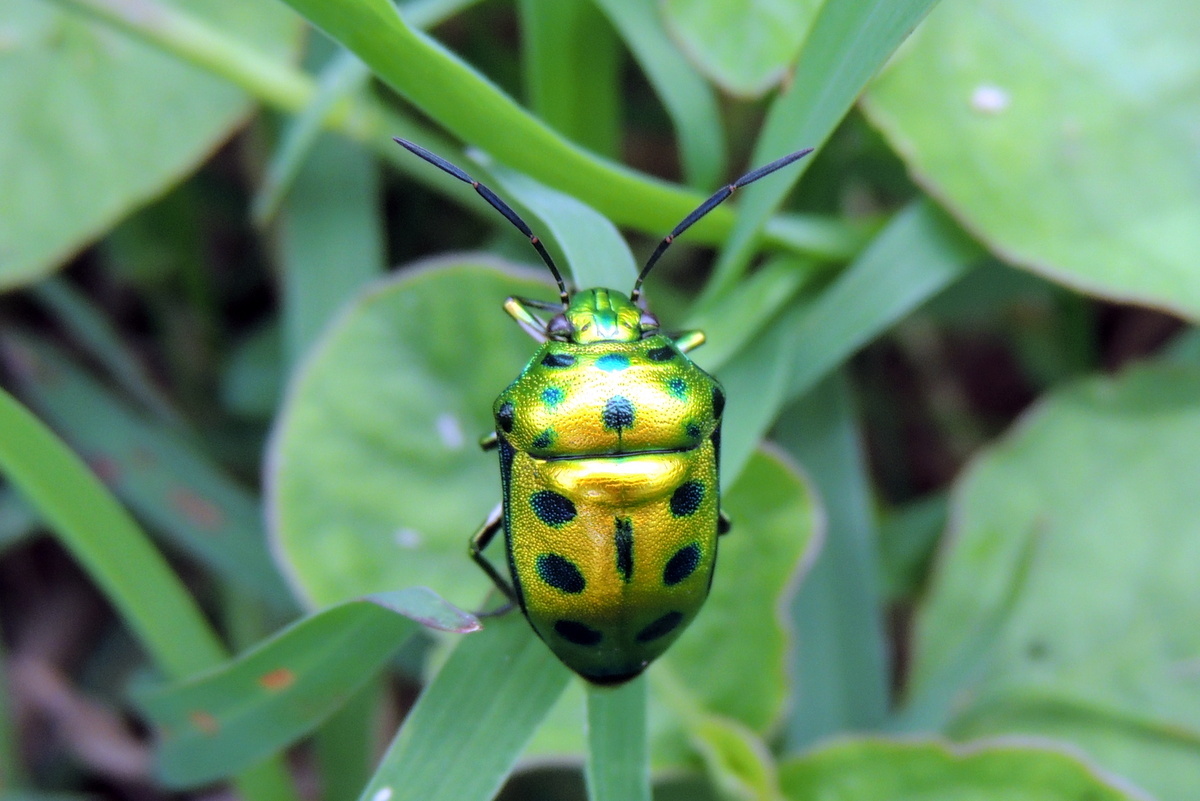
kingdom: Animalia
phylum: Arthropoda
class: Insecta
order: Hemiptera
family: Scutelleridae
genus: Chrysocoris
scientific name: Chrysocoris
